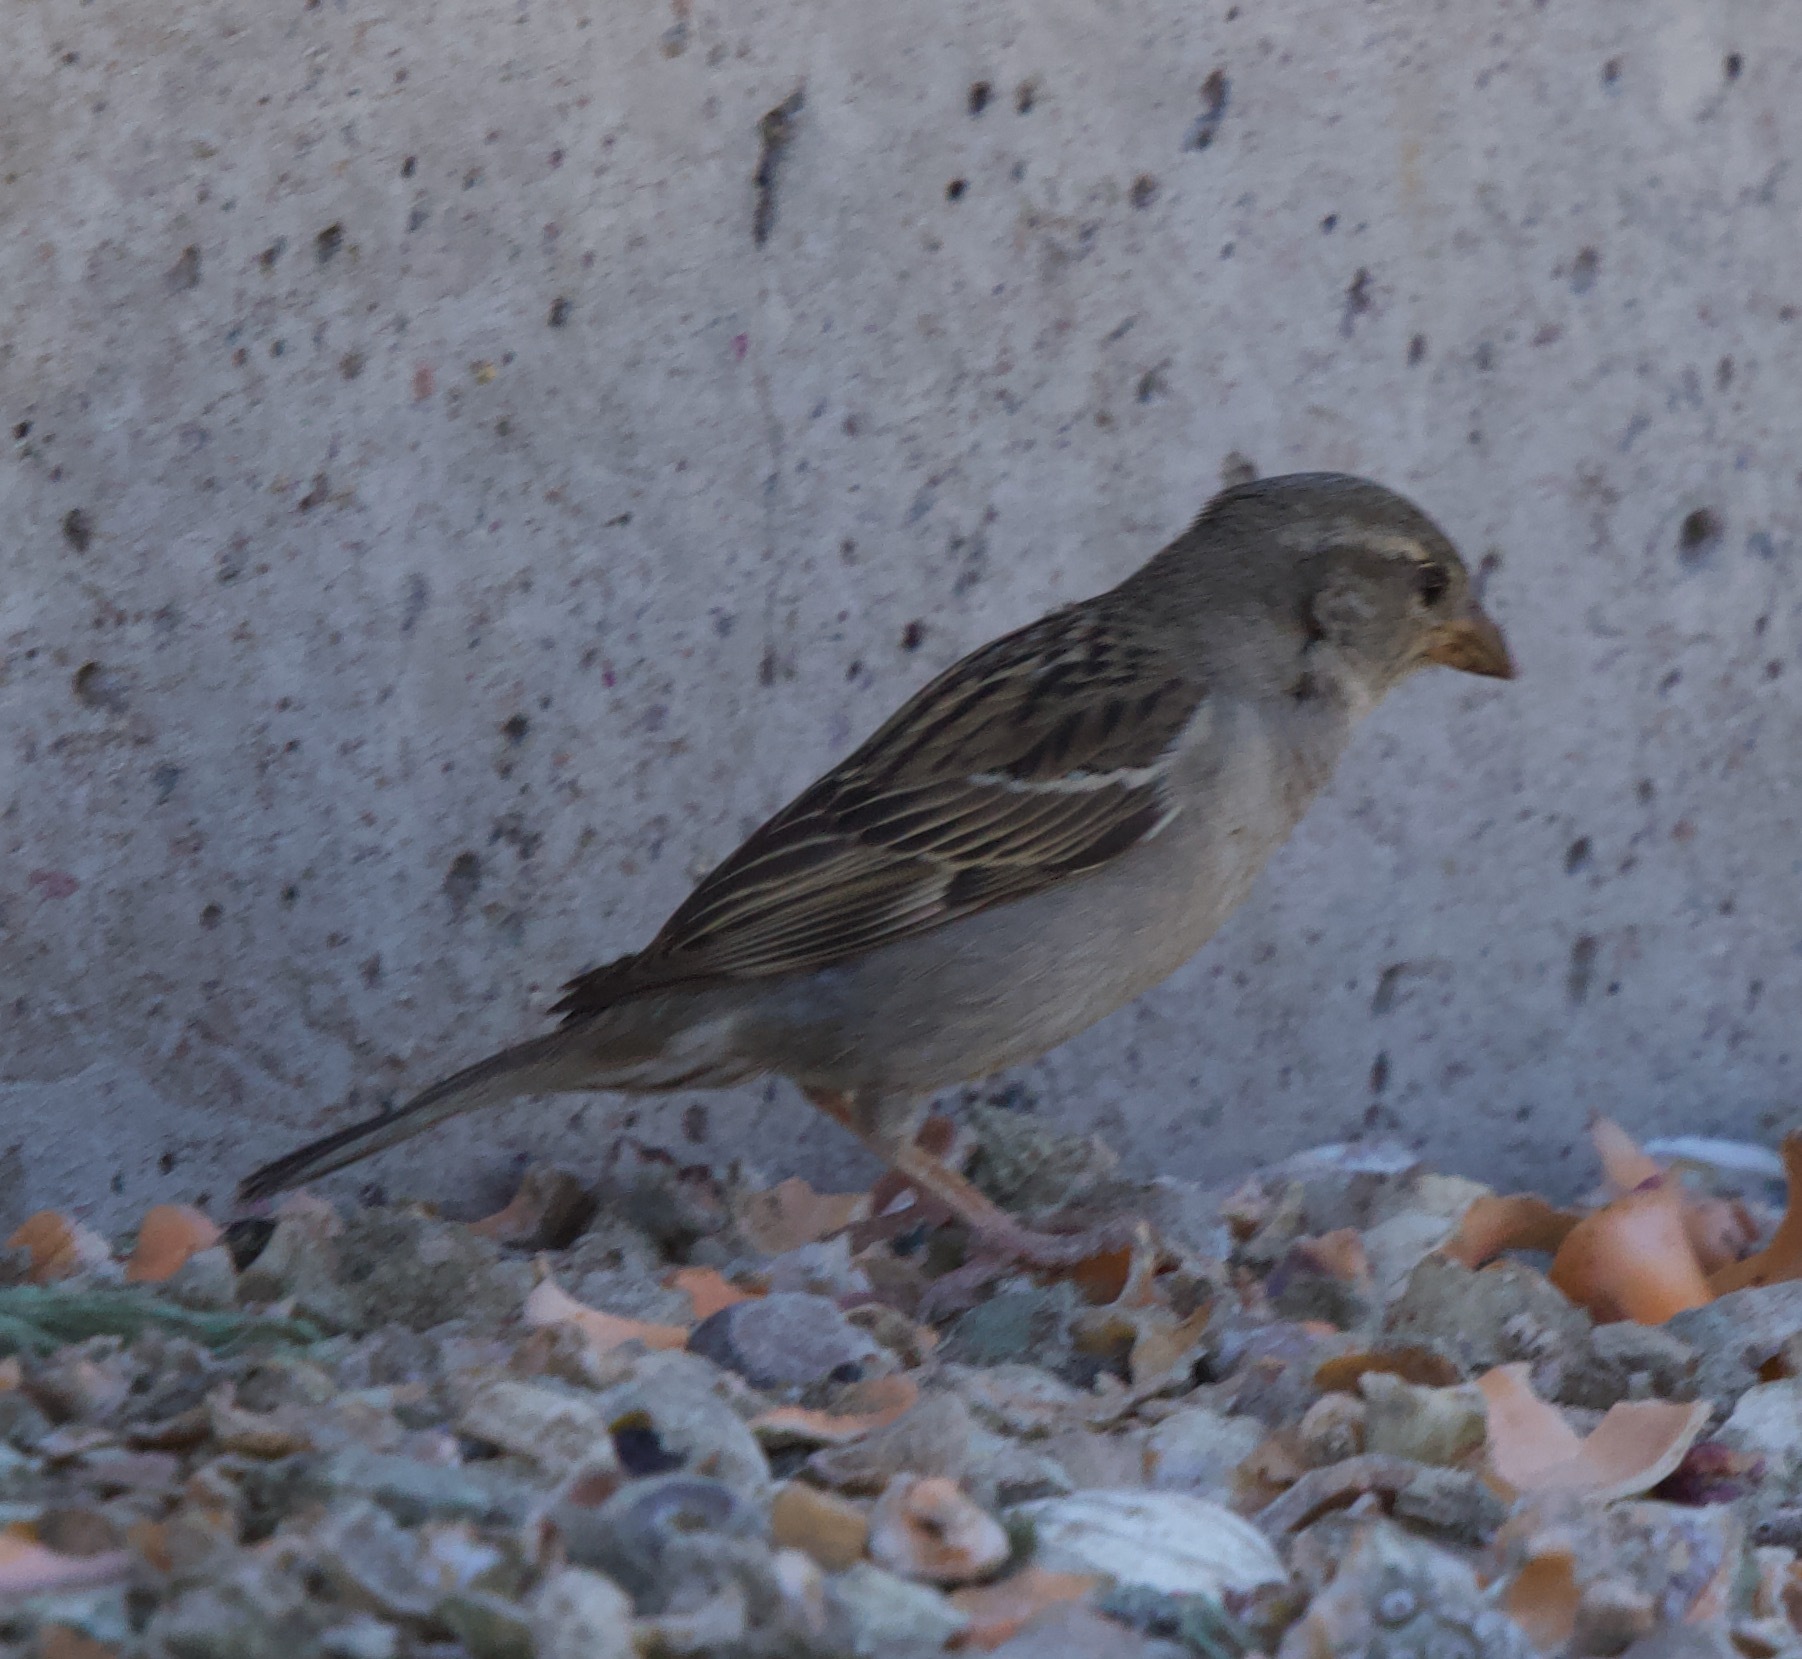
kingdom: Animalia
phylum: Chordata
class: Aves
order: Passeriformes
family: Passeridae
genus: Passer
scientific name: Passer domesticus
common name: House sparrow
